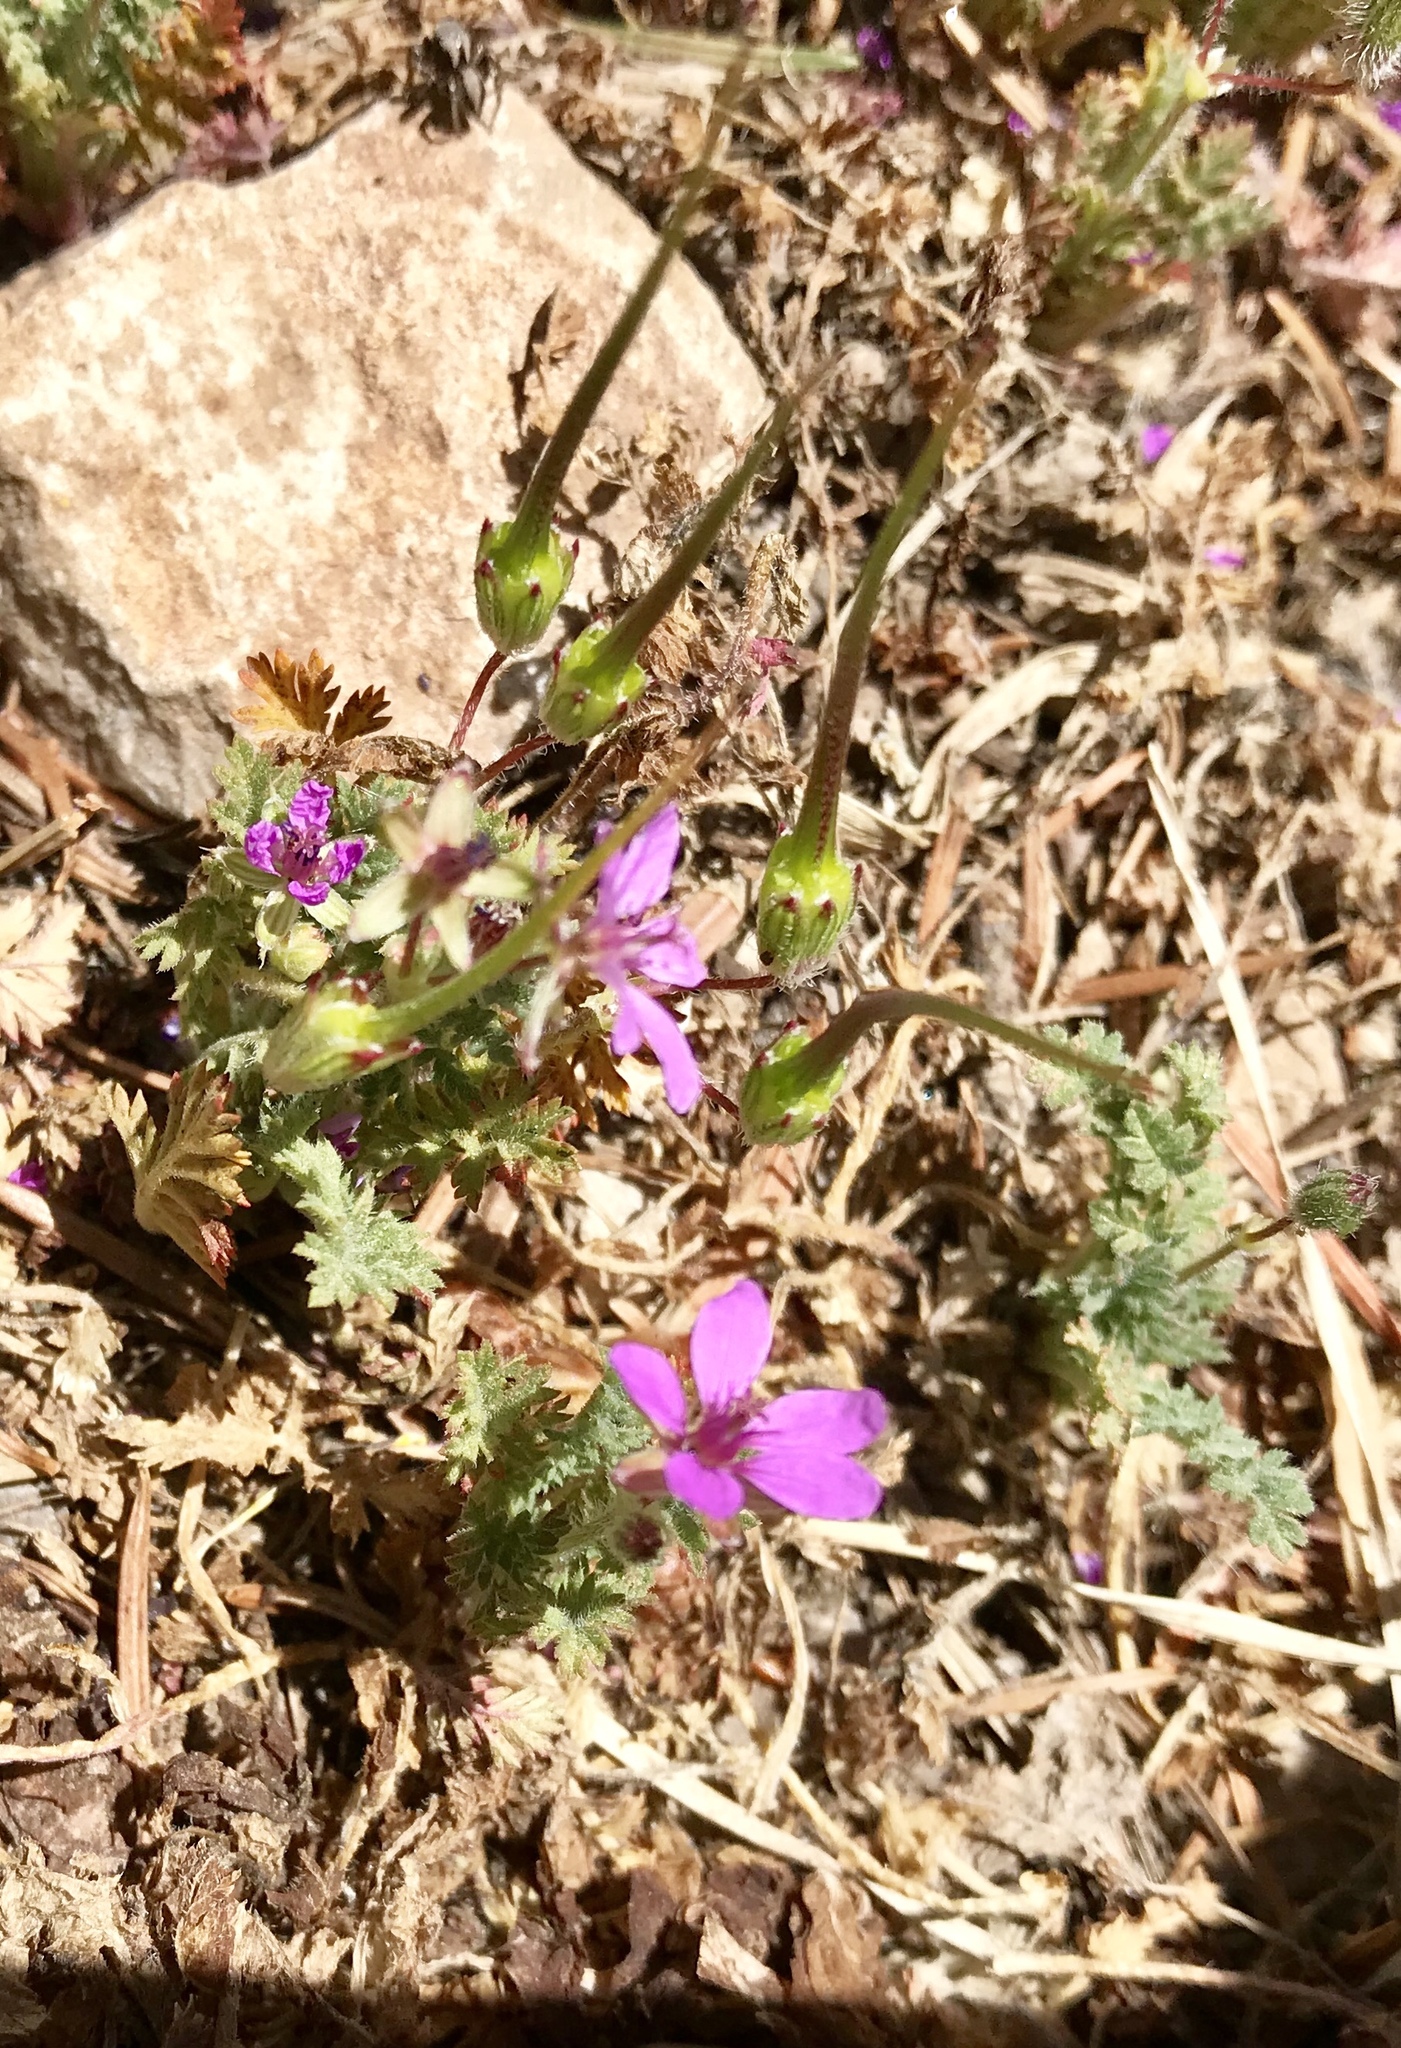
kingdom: Plantae
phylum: Tracheophyta
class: Magnoliopsida
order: Geraniales
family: Geraniaceae
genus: Erodium
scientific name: Erodium cicutarium
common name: Common stork's-bill
